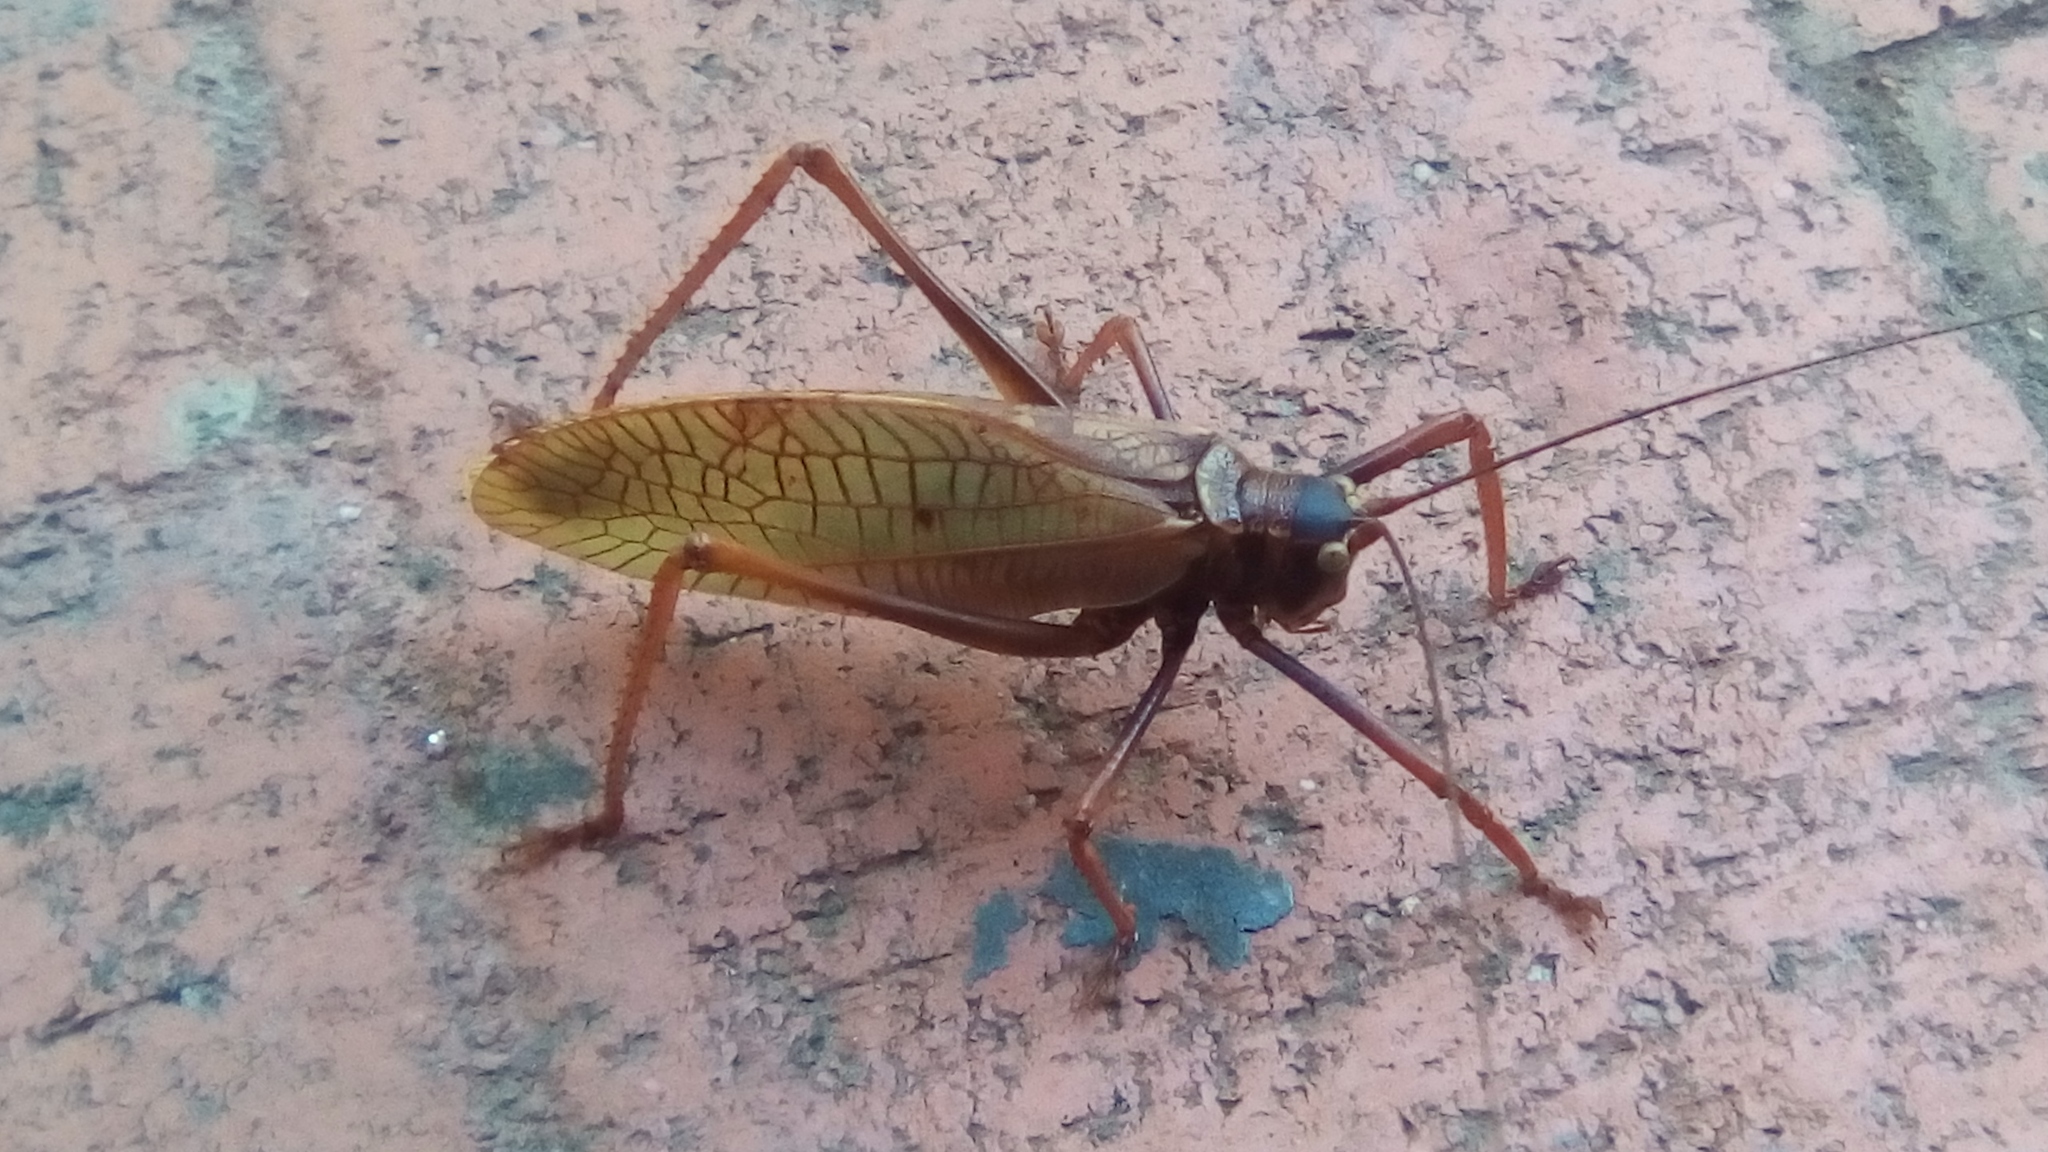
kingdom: Animalia
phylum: Arthropoda
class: Insecta
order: Orthoptera
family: Tettigoniidae
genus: Pterophylla
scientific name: Pterophylla beltrani
